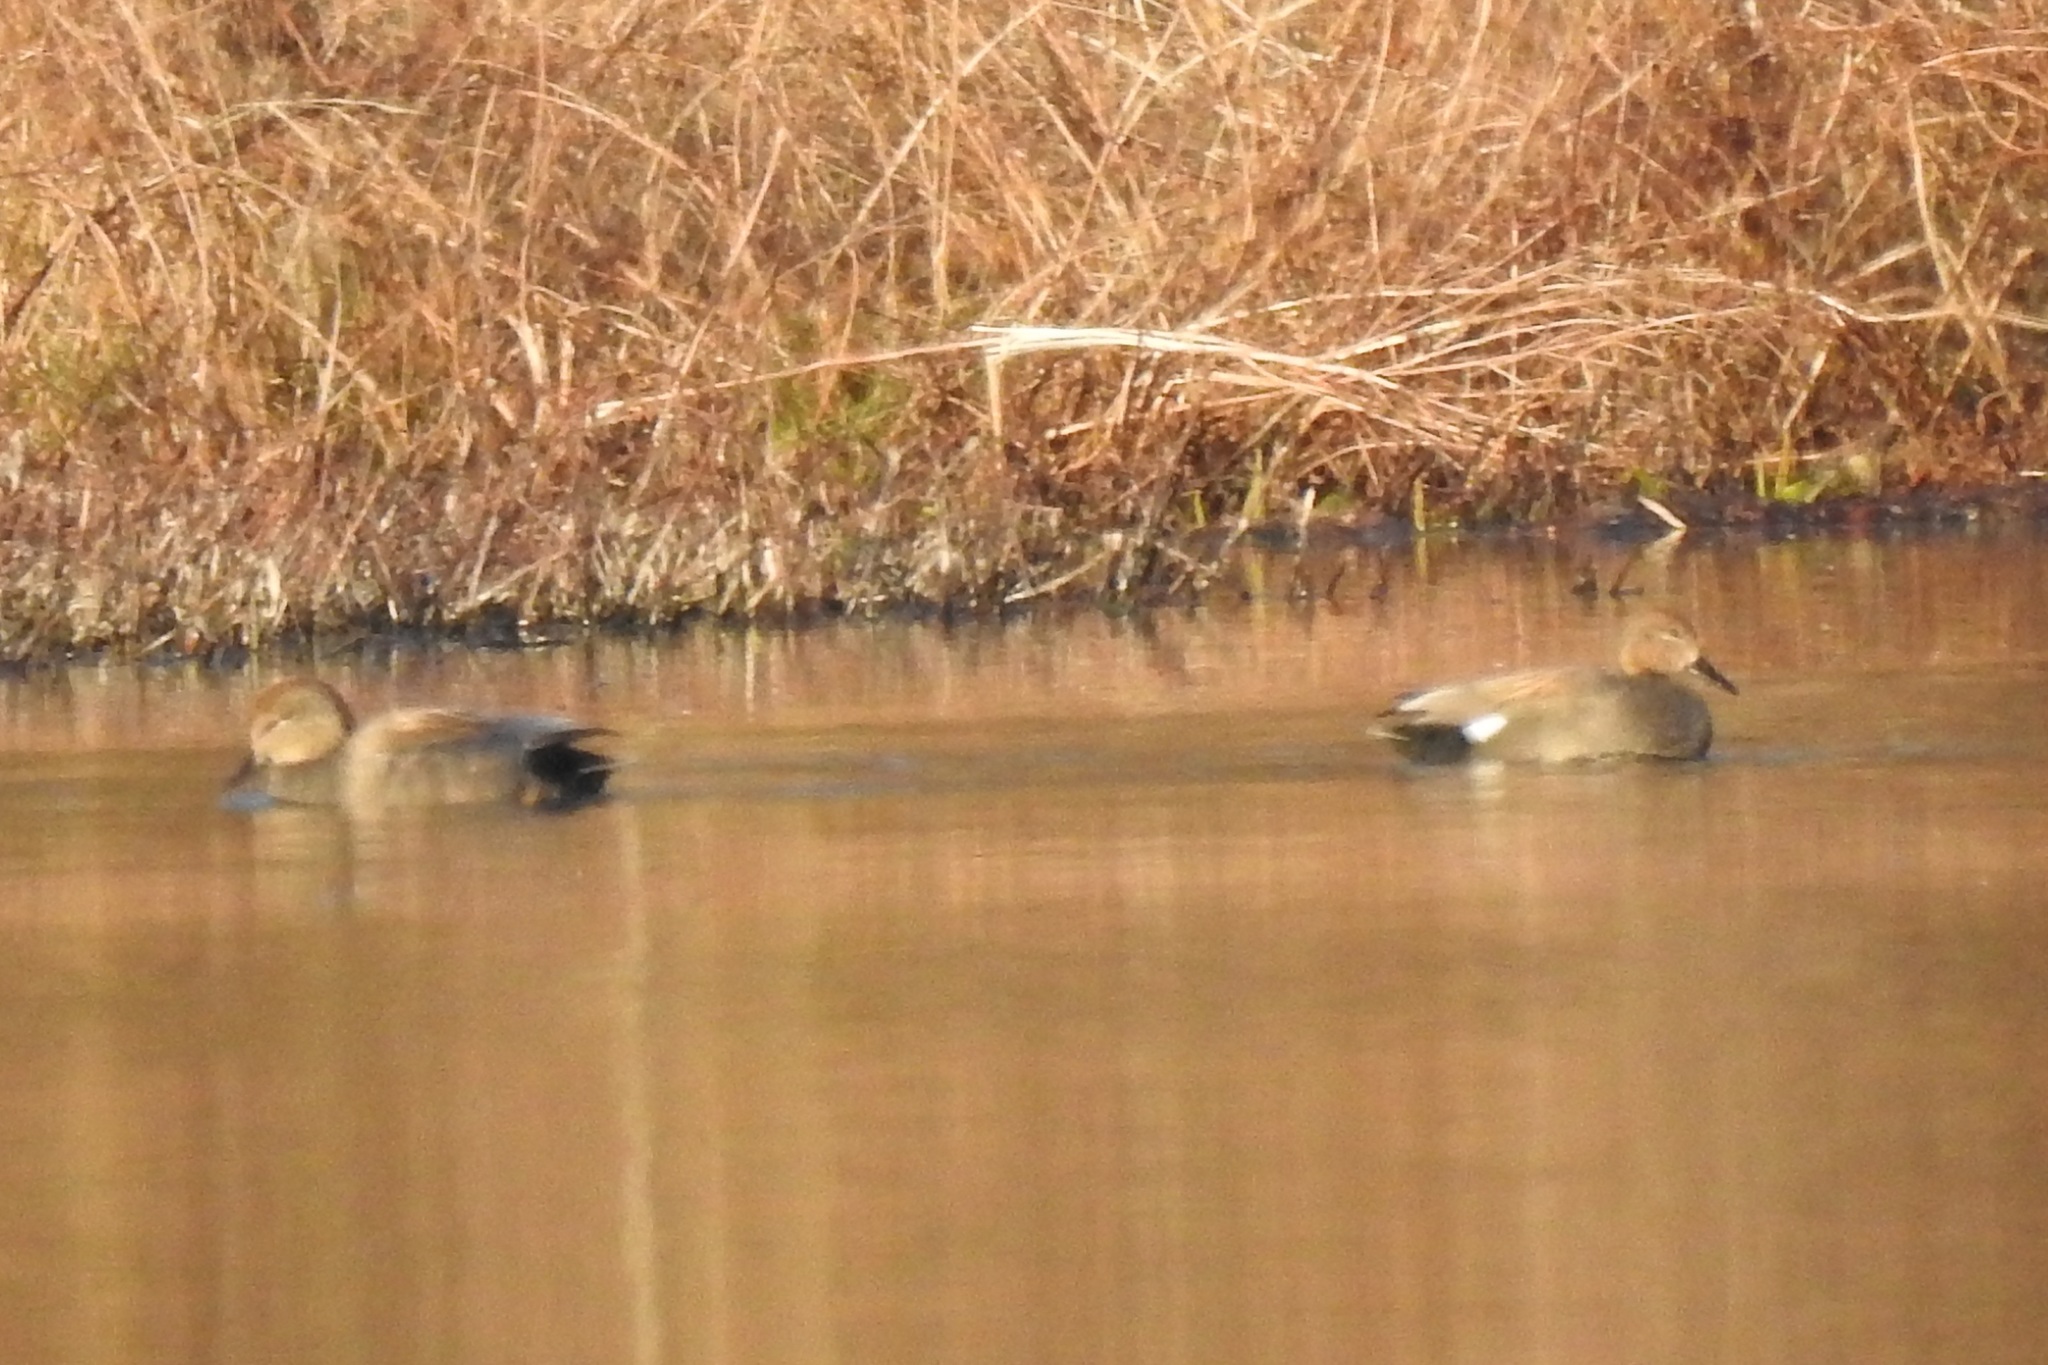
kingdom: Animalia
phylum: Chordata
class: Aves
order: Anseriformes
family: Anatidae
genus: Mareca
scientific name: Mareca strepera
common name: Gadwall
